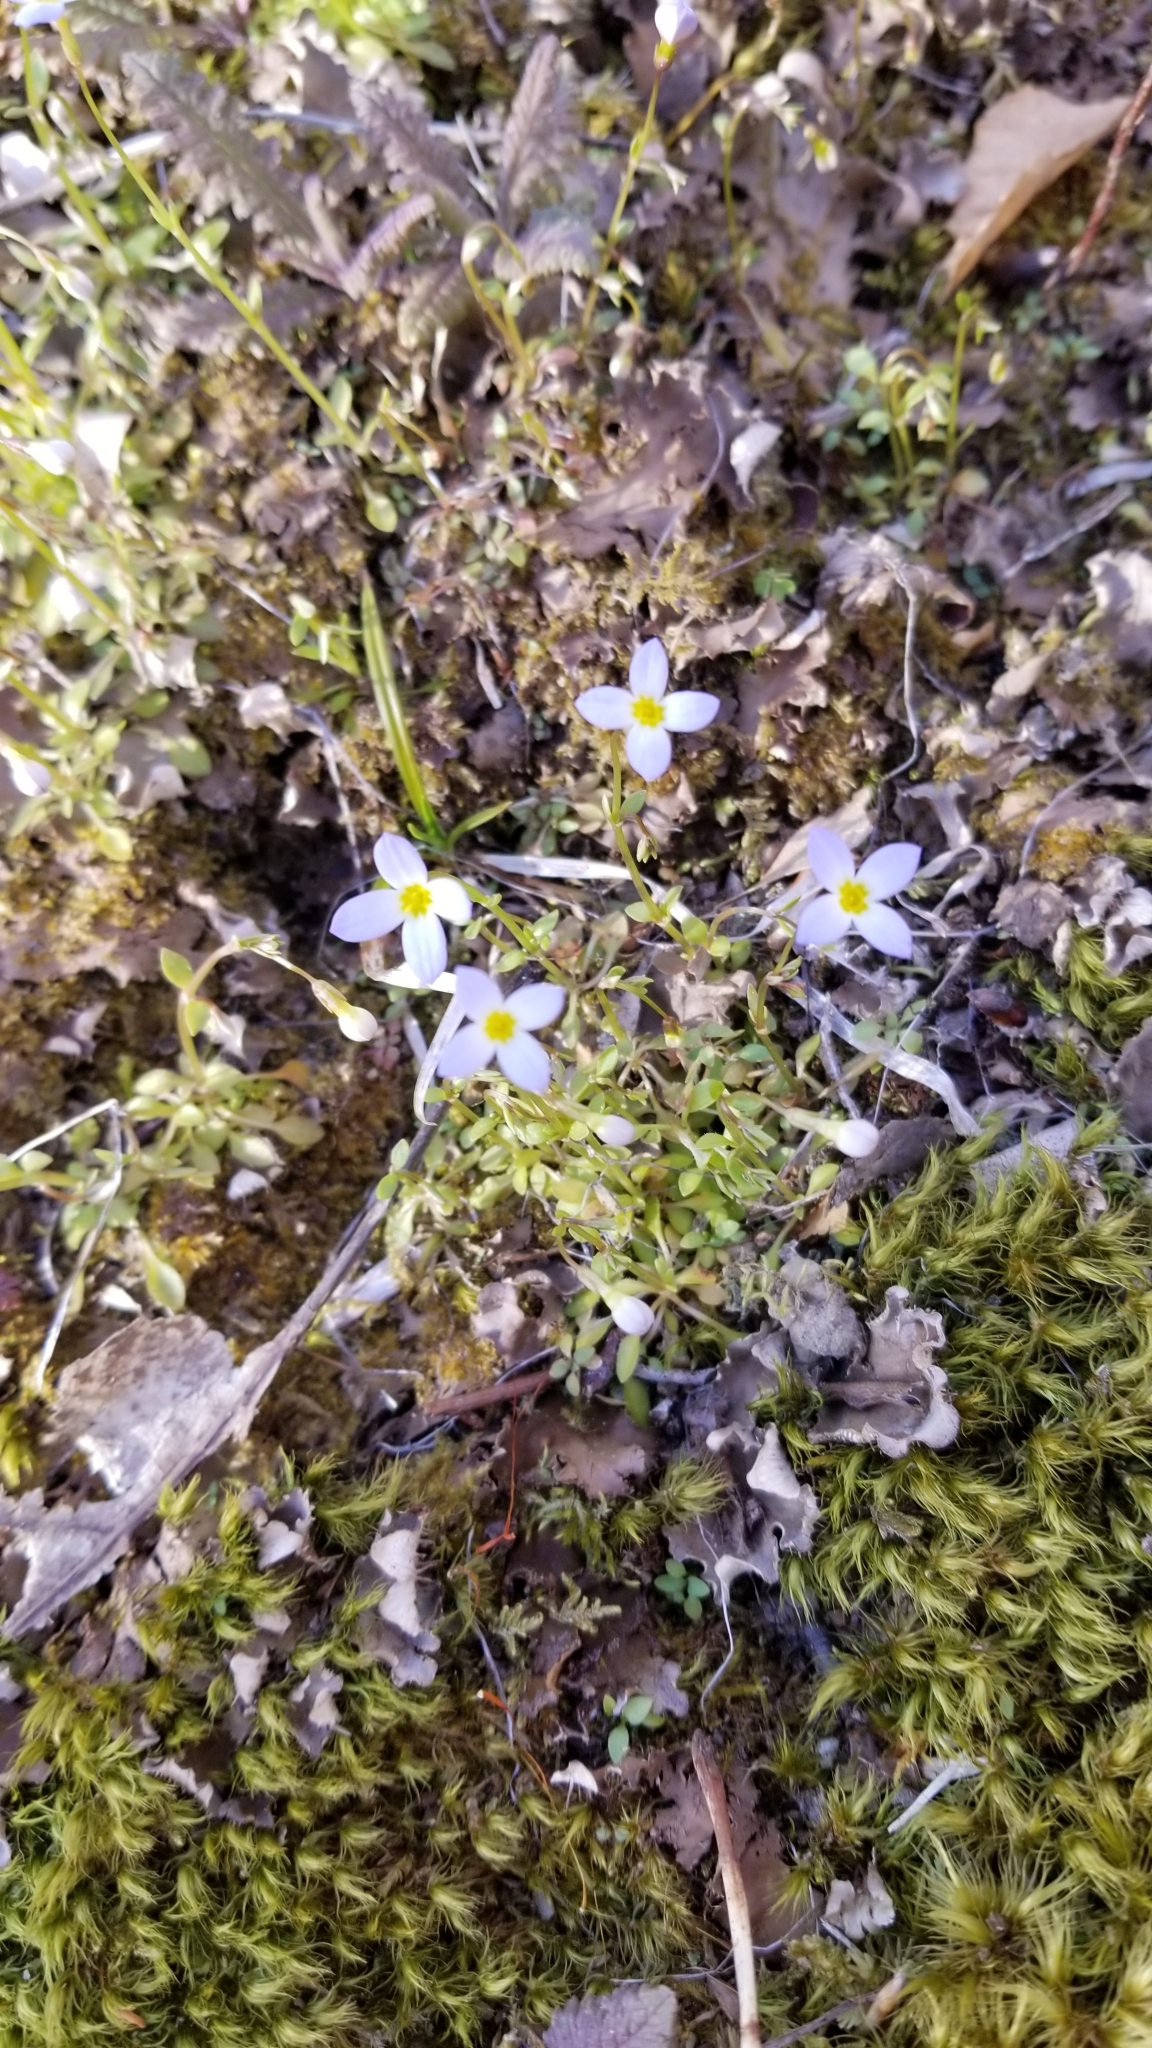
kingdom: Plantae
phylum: Tracheophyta
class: Magnoliopsida
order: Gentianales
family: Rubiaceae
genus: Houstonia
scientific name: Houstonia caerulea
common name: Bluets
